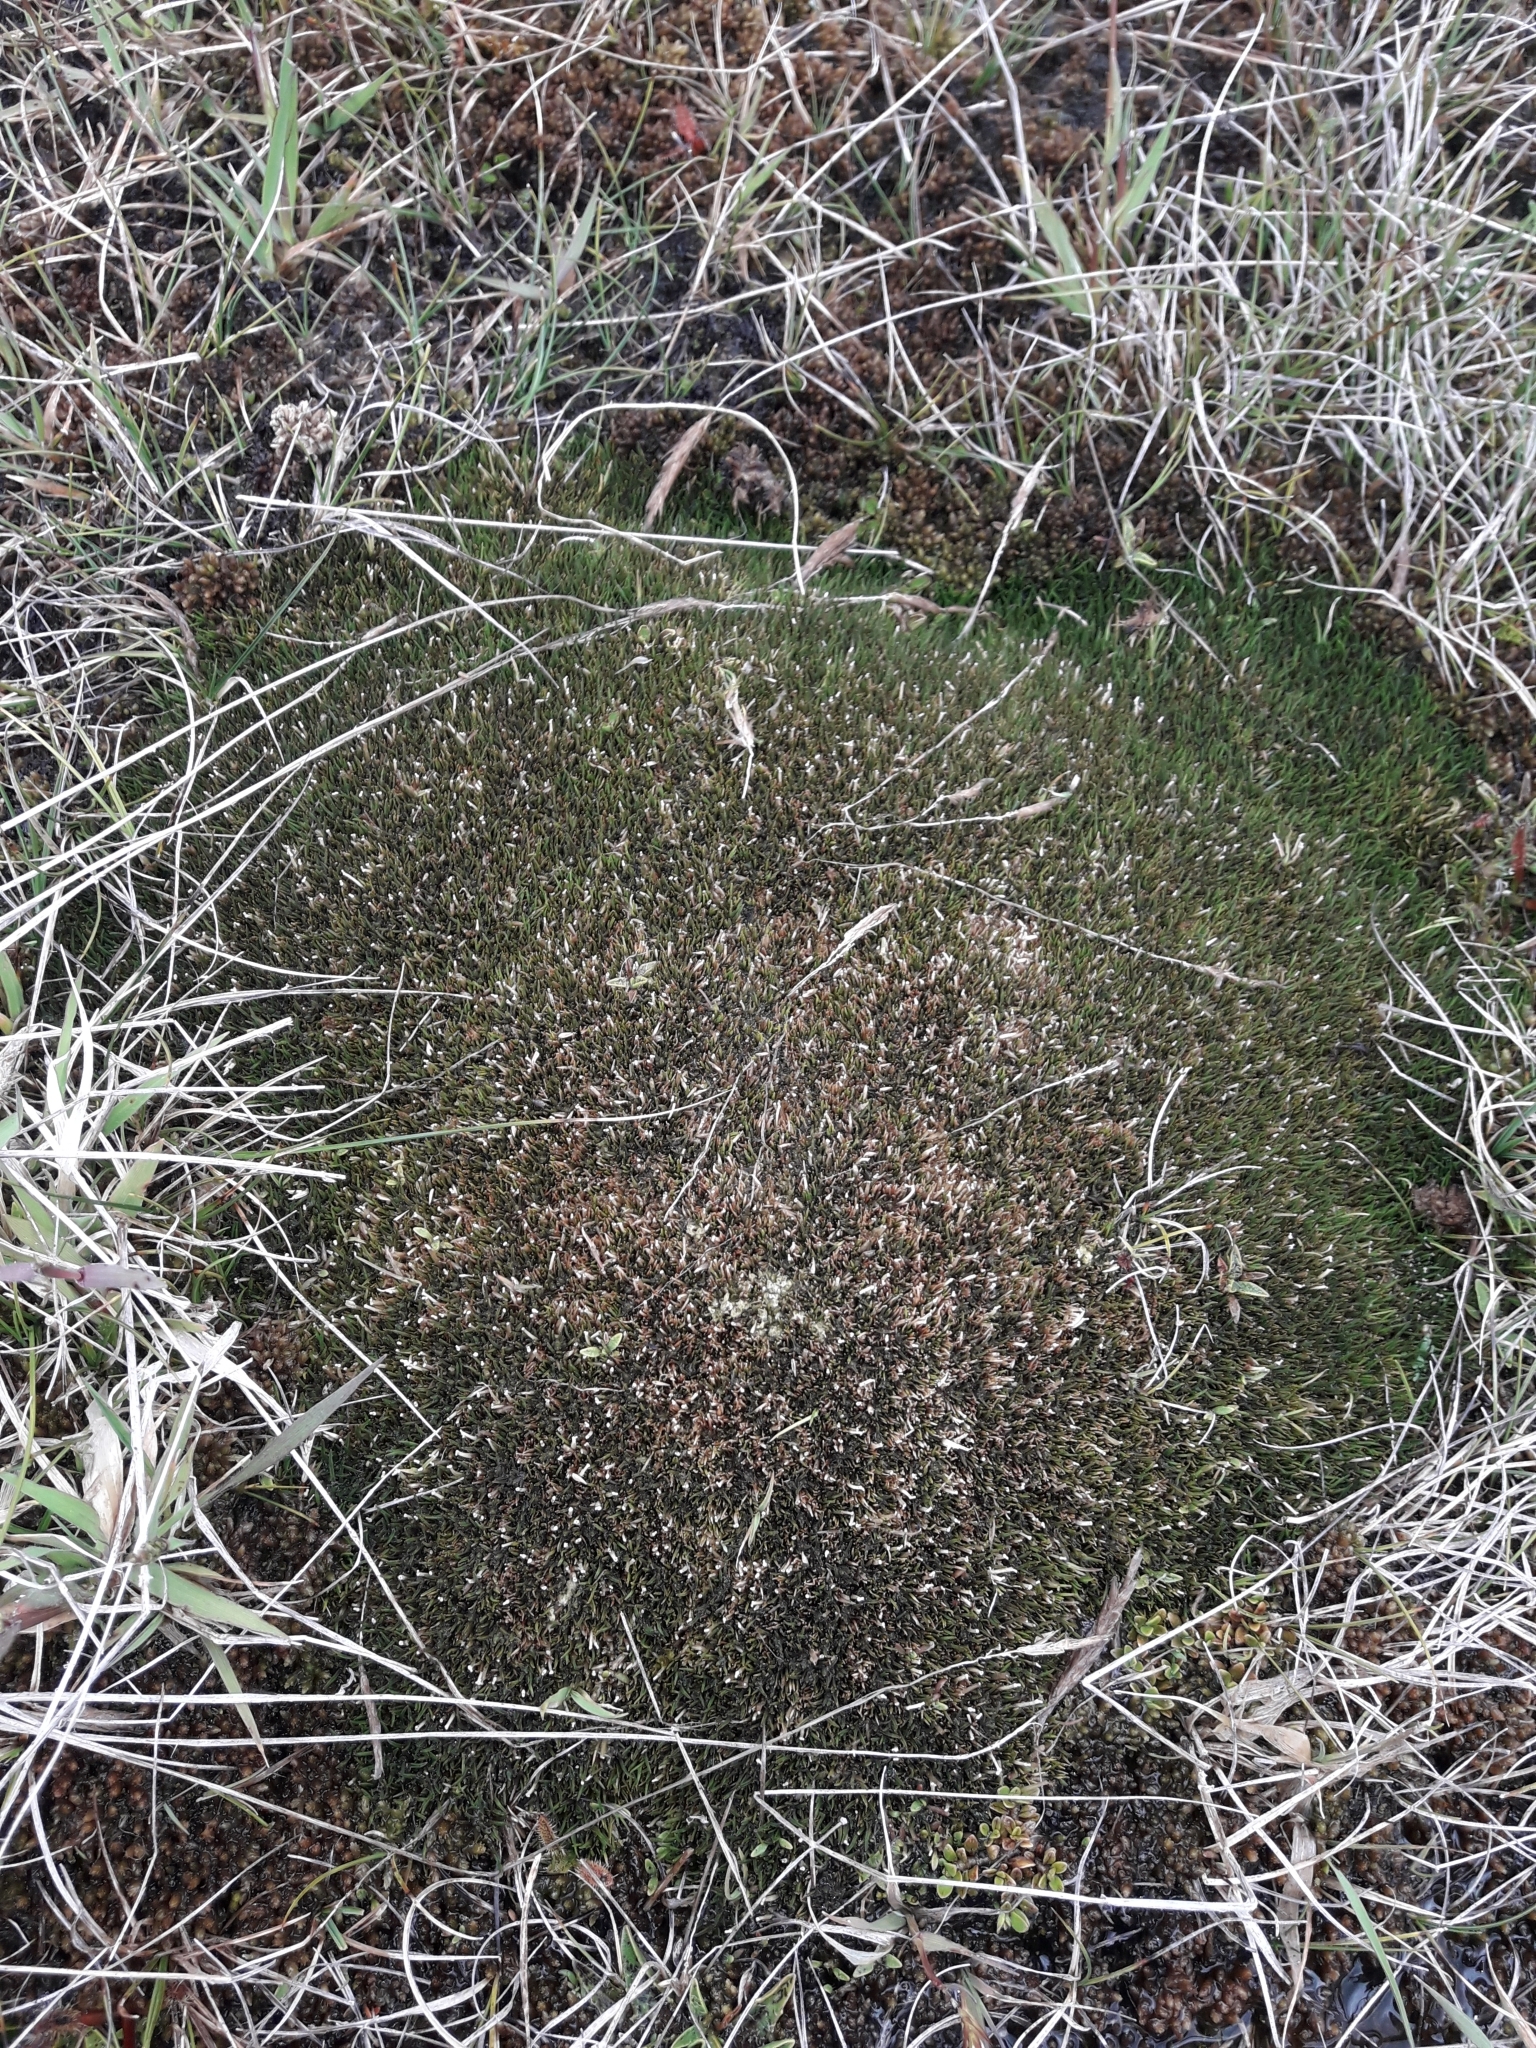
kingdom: Plantae
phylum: Tracheophyta
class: Liliopsida
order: Poales
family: Restionaceae
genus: Centrolepis
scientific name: Centrolepis pallida
